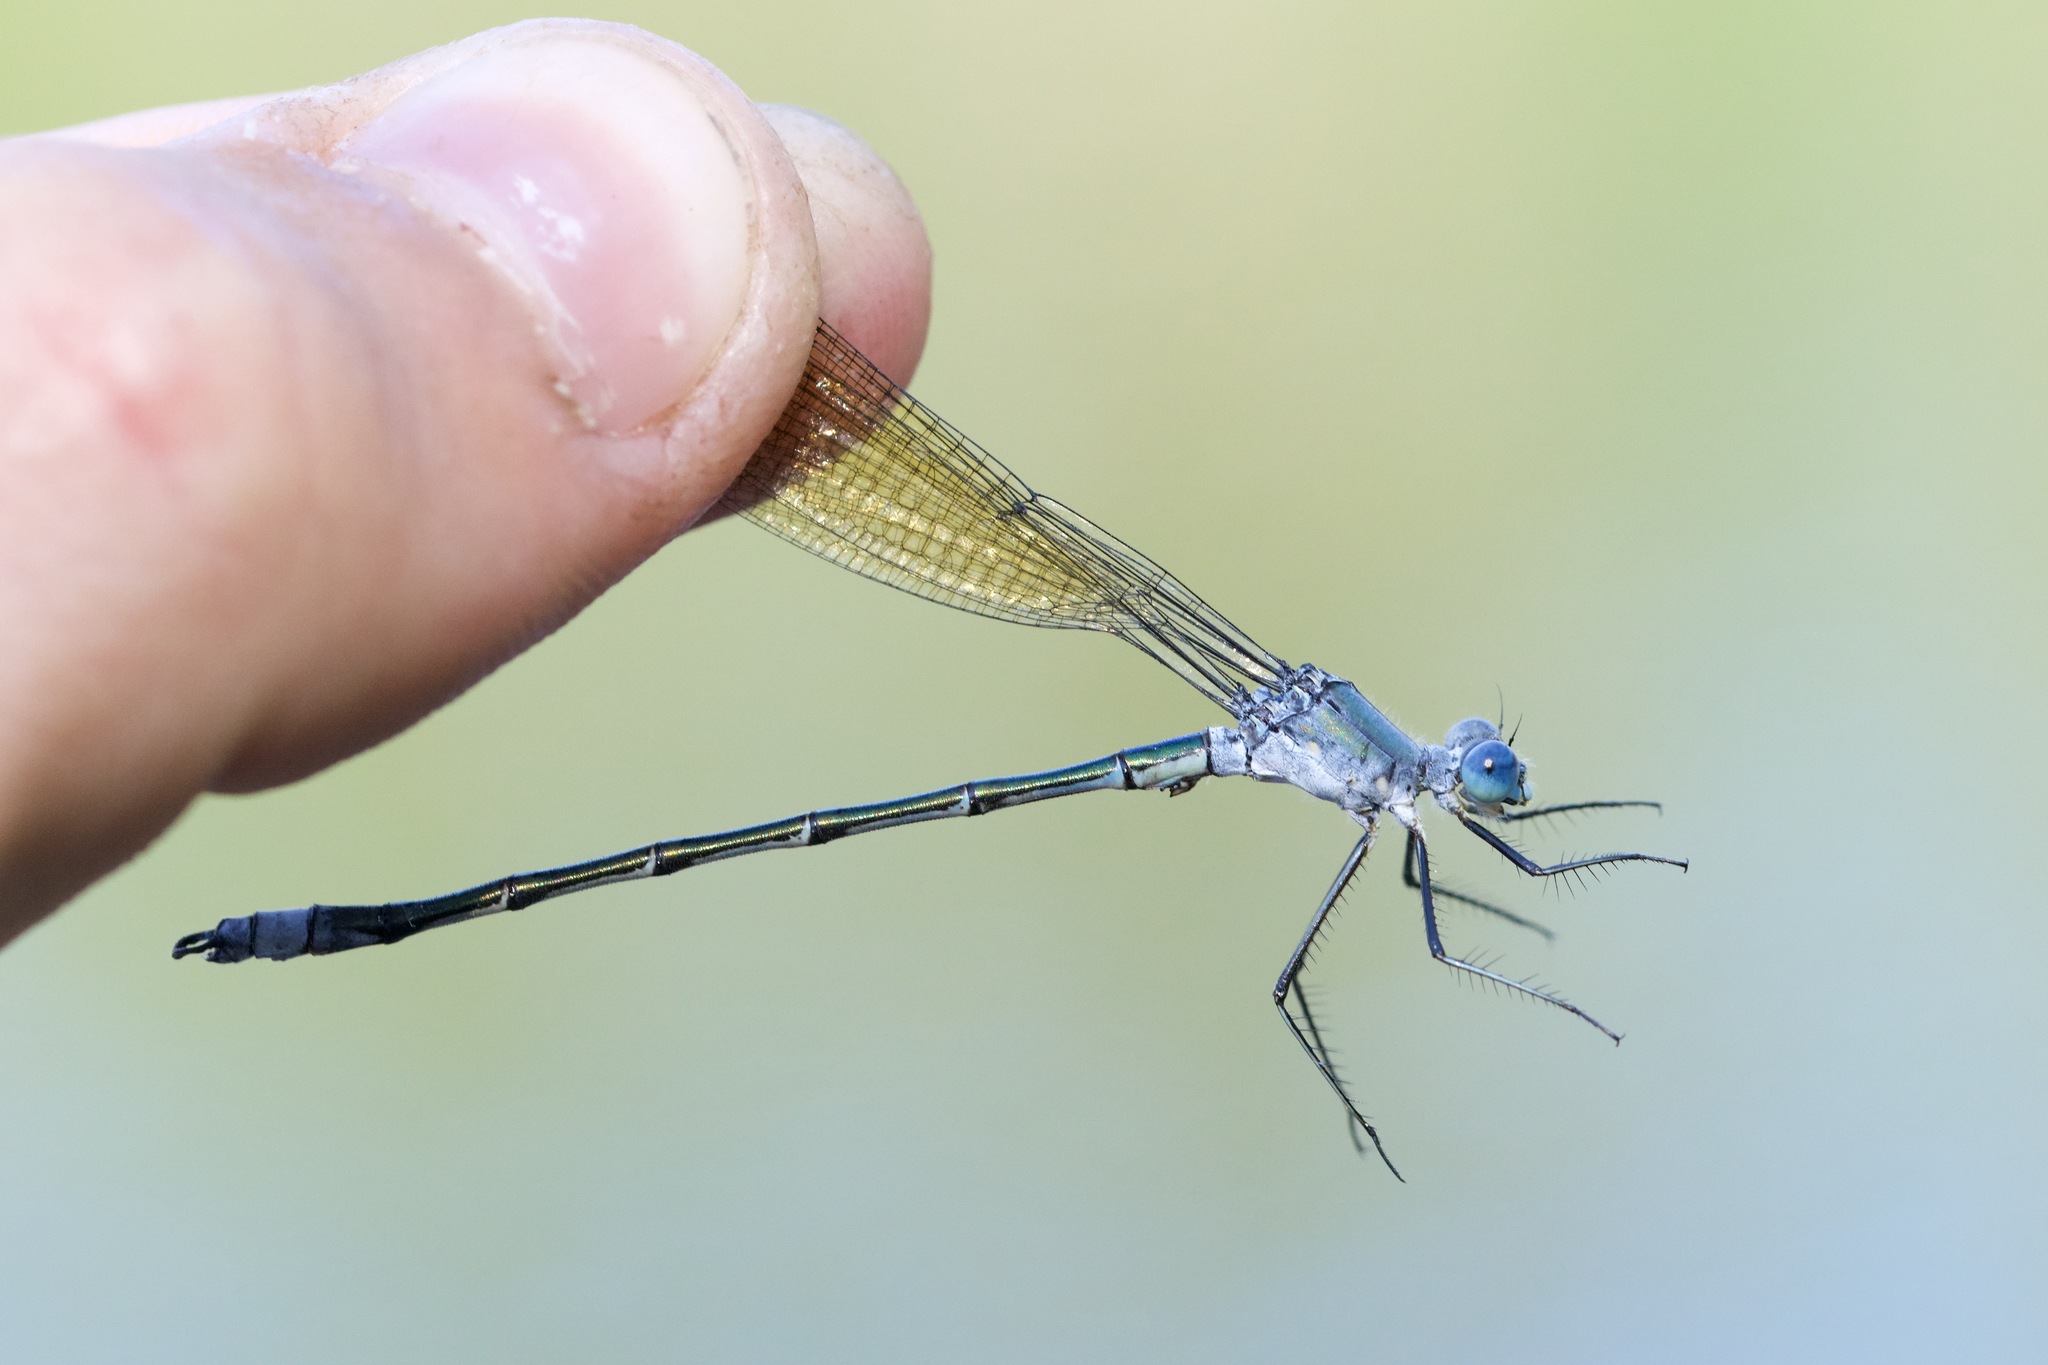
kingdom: Animalia
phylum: Arthropoda
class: Insecta
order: Odonata
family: Lestidae
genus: Lestes
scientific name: Lestes eurinus
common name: Amber-winged spreadwing
